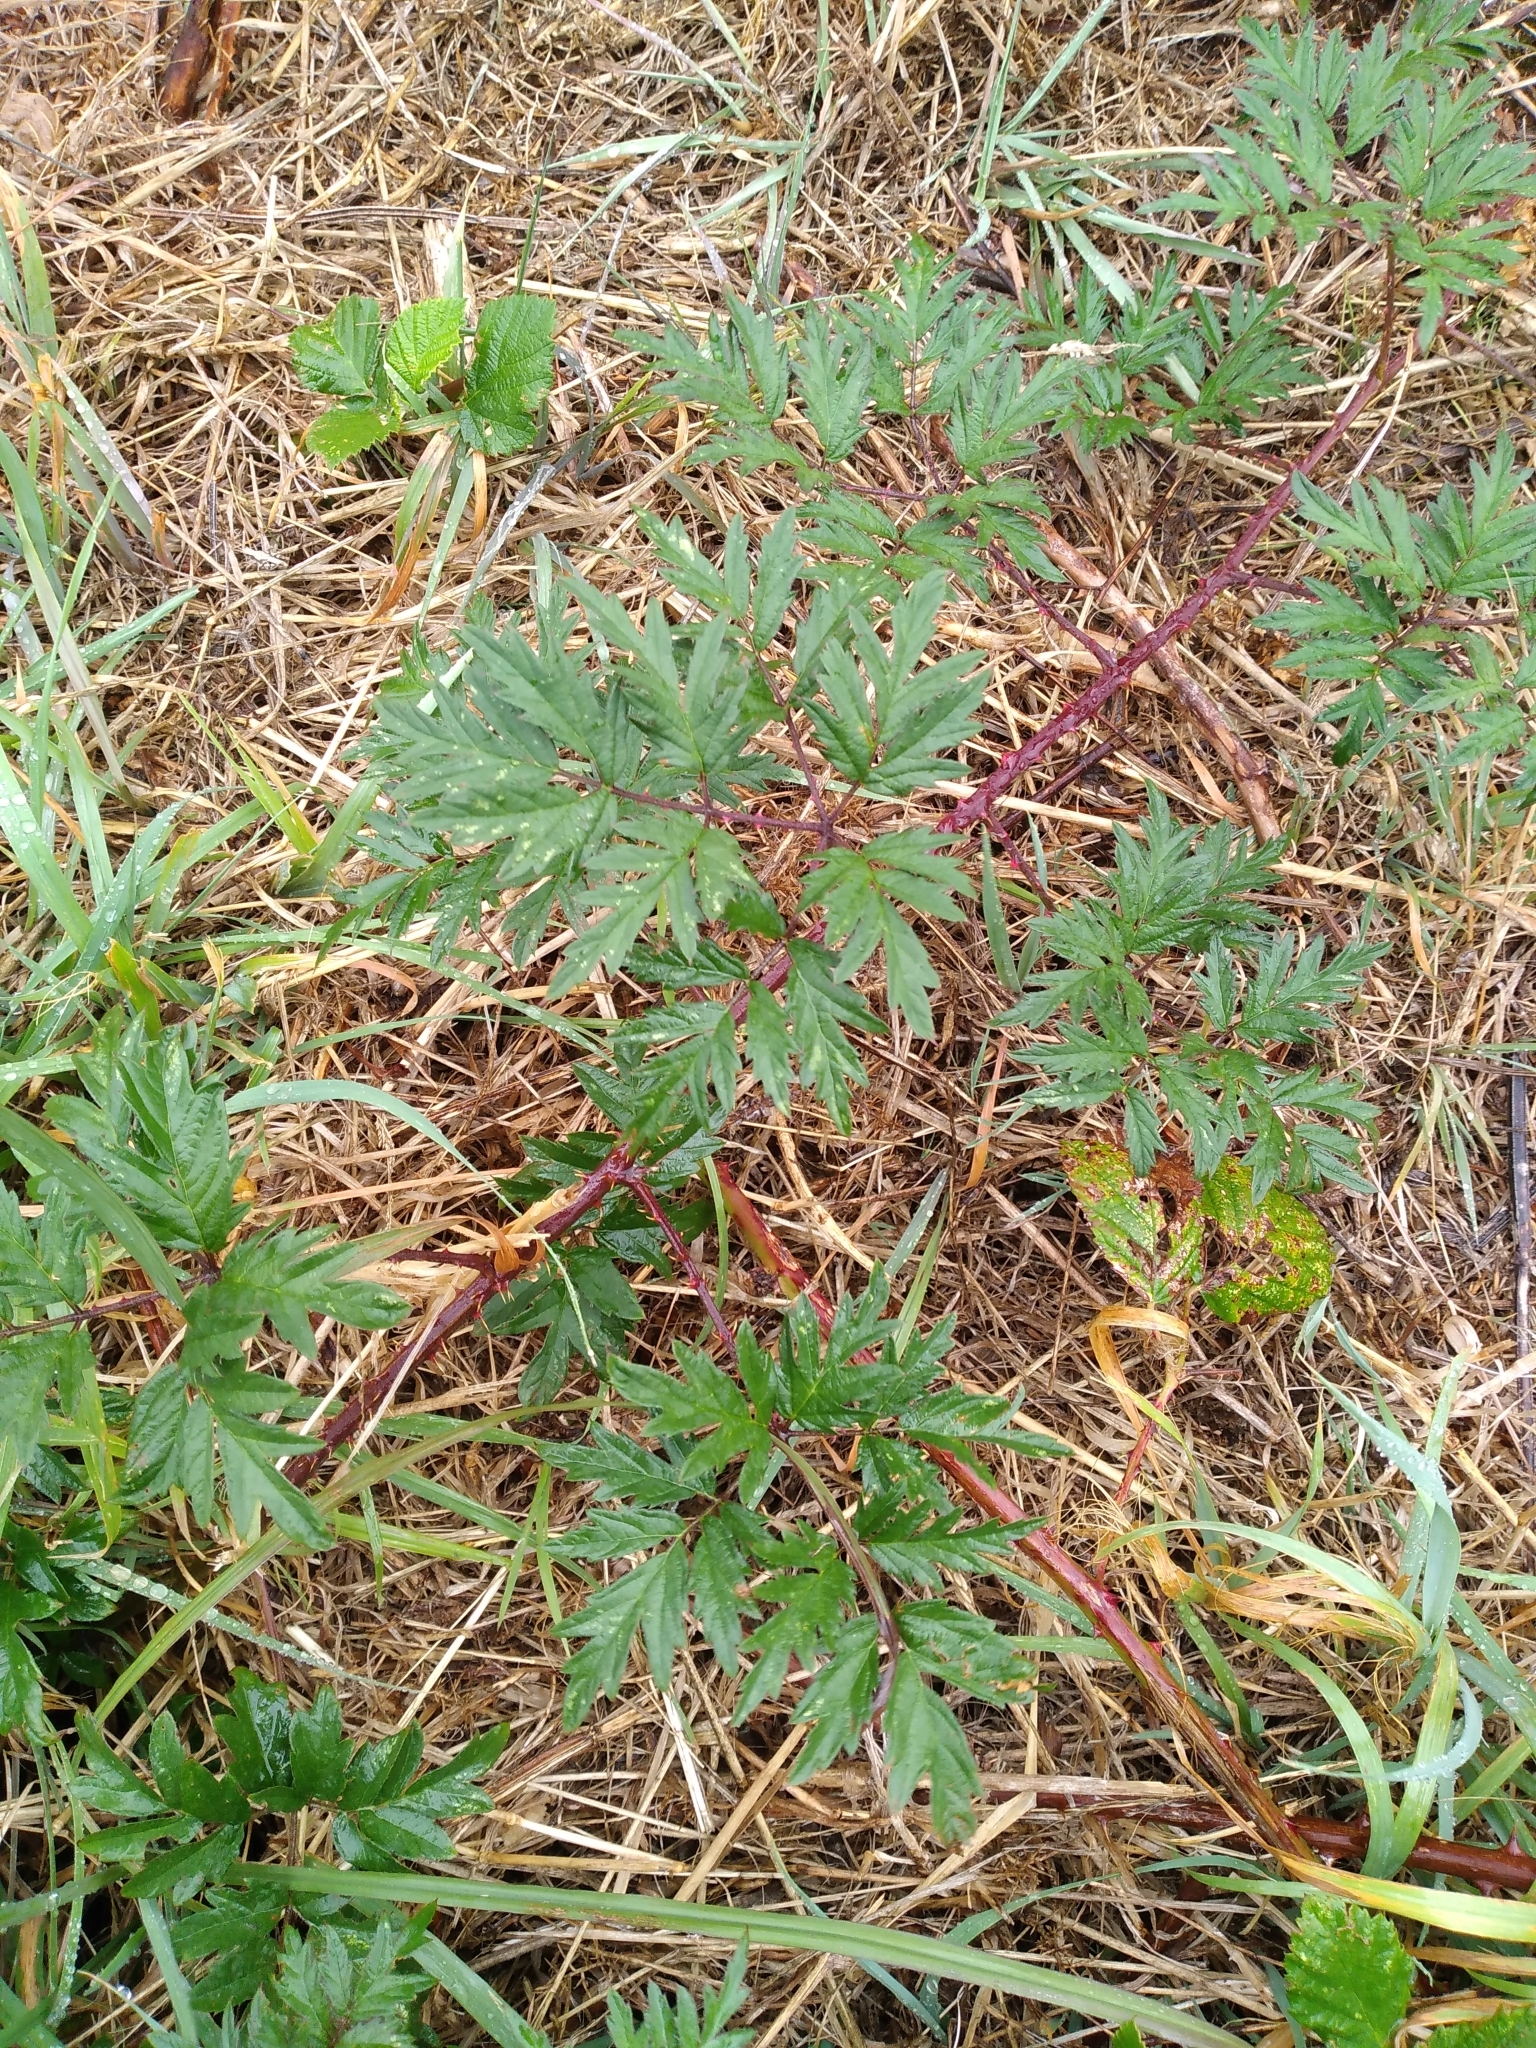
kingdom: Plantae
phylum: Tracheophyta
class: Magnoliopsida
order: Rosales
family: Rosaceae
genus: Rubus
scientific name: Rubus laciniatus
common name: Evergreen blackberry
